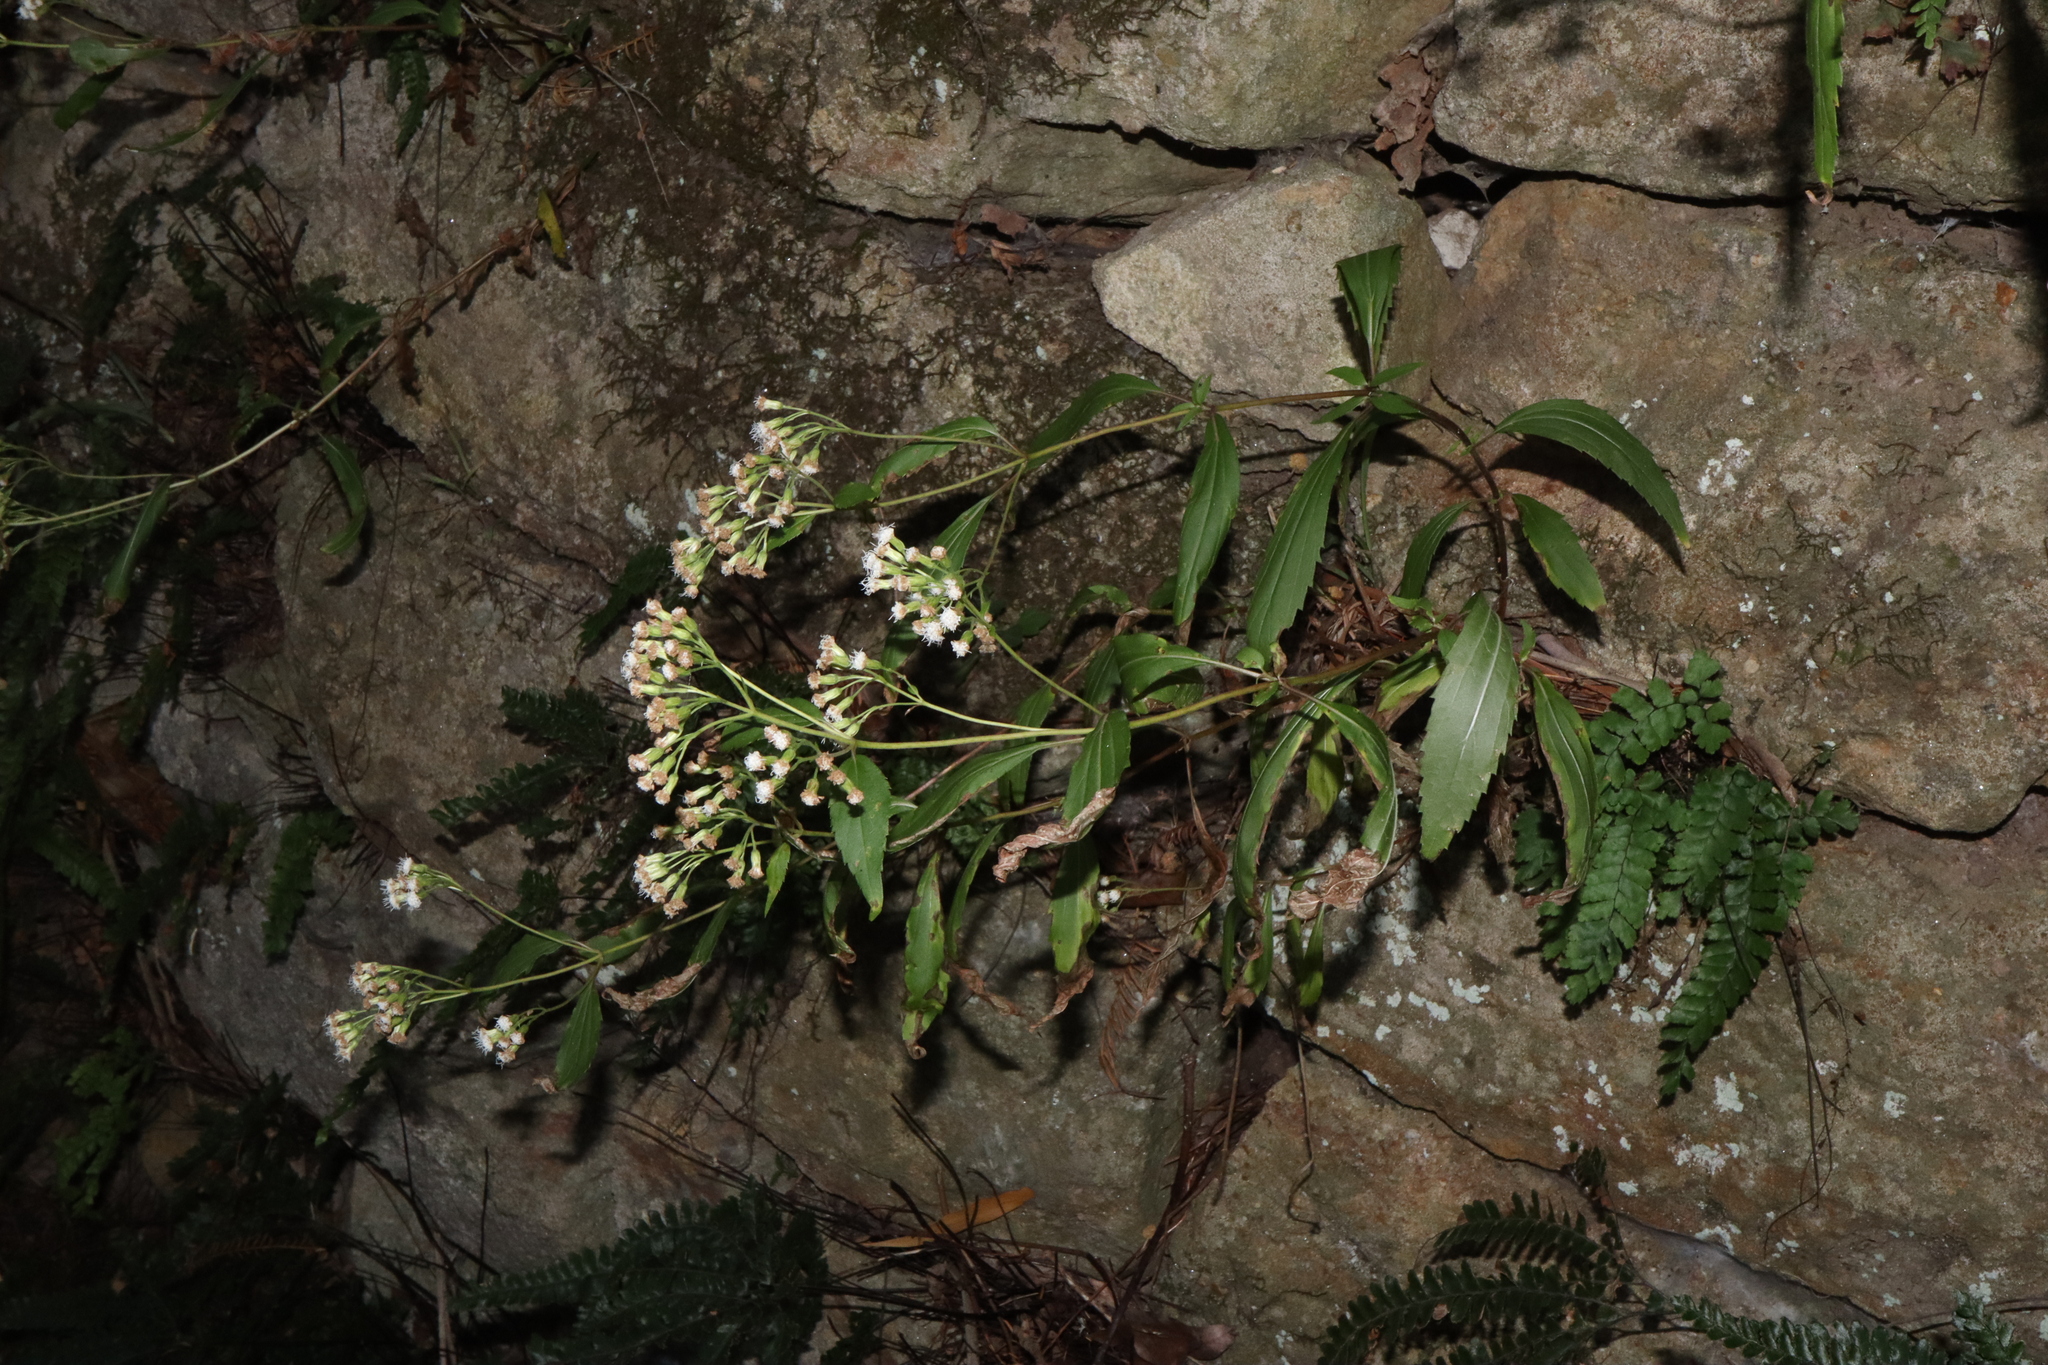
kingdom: Plantae
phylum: Tracheophyta
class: Magnoliopsida
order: Asterales
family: Asteraceae
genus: Ageratina
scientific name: Ageratina riparia
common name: Creeping croftonweed
